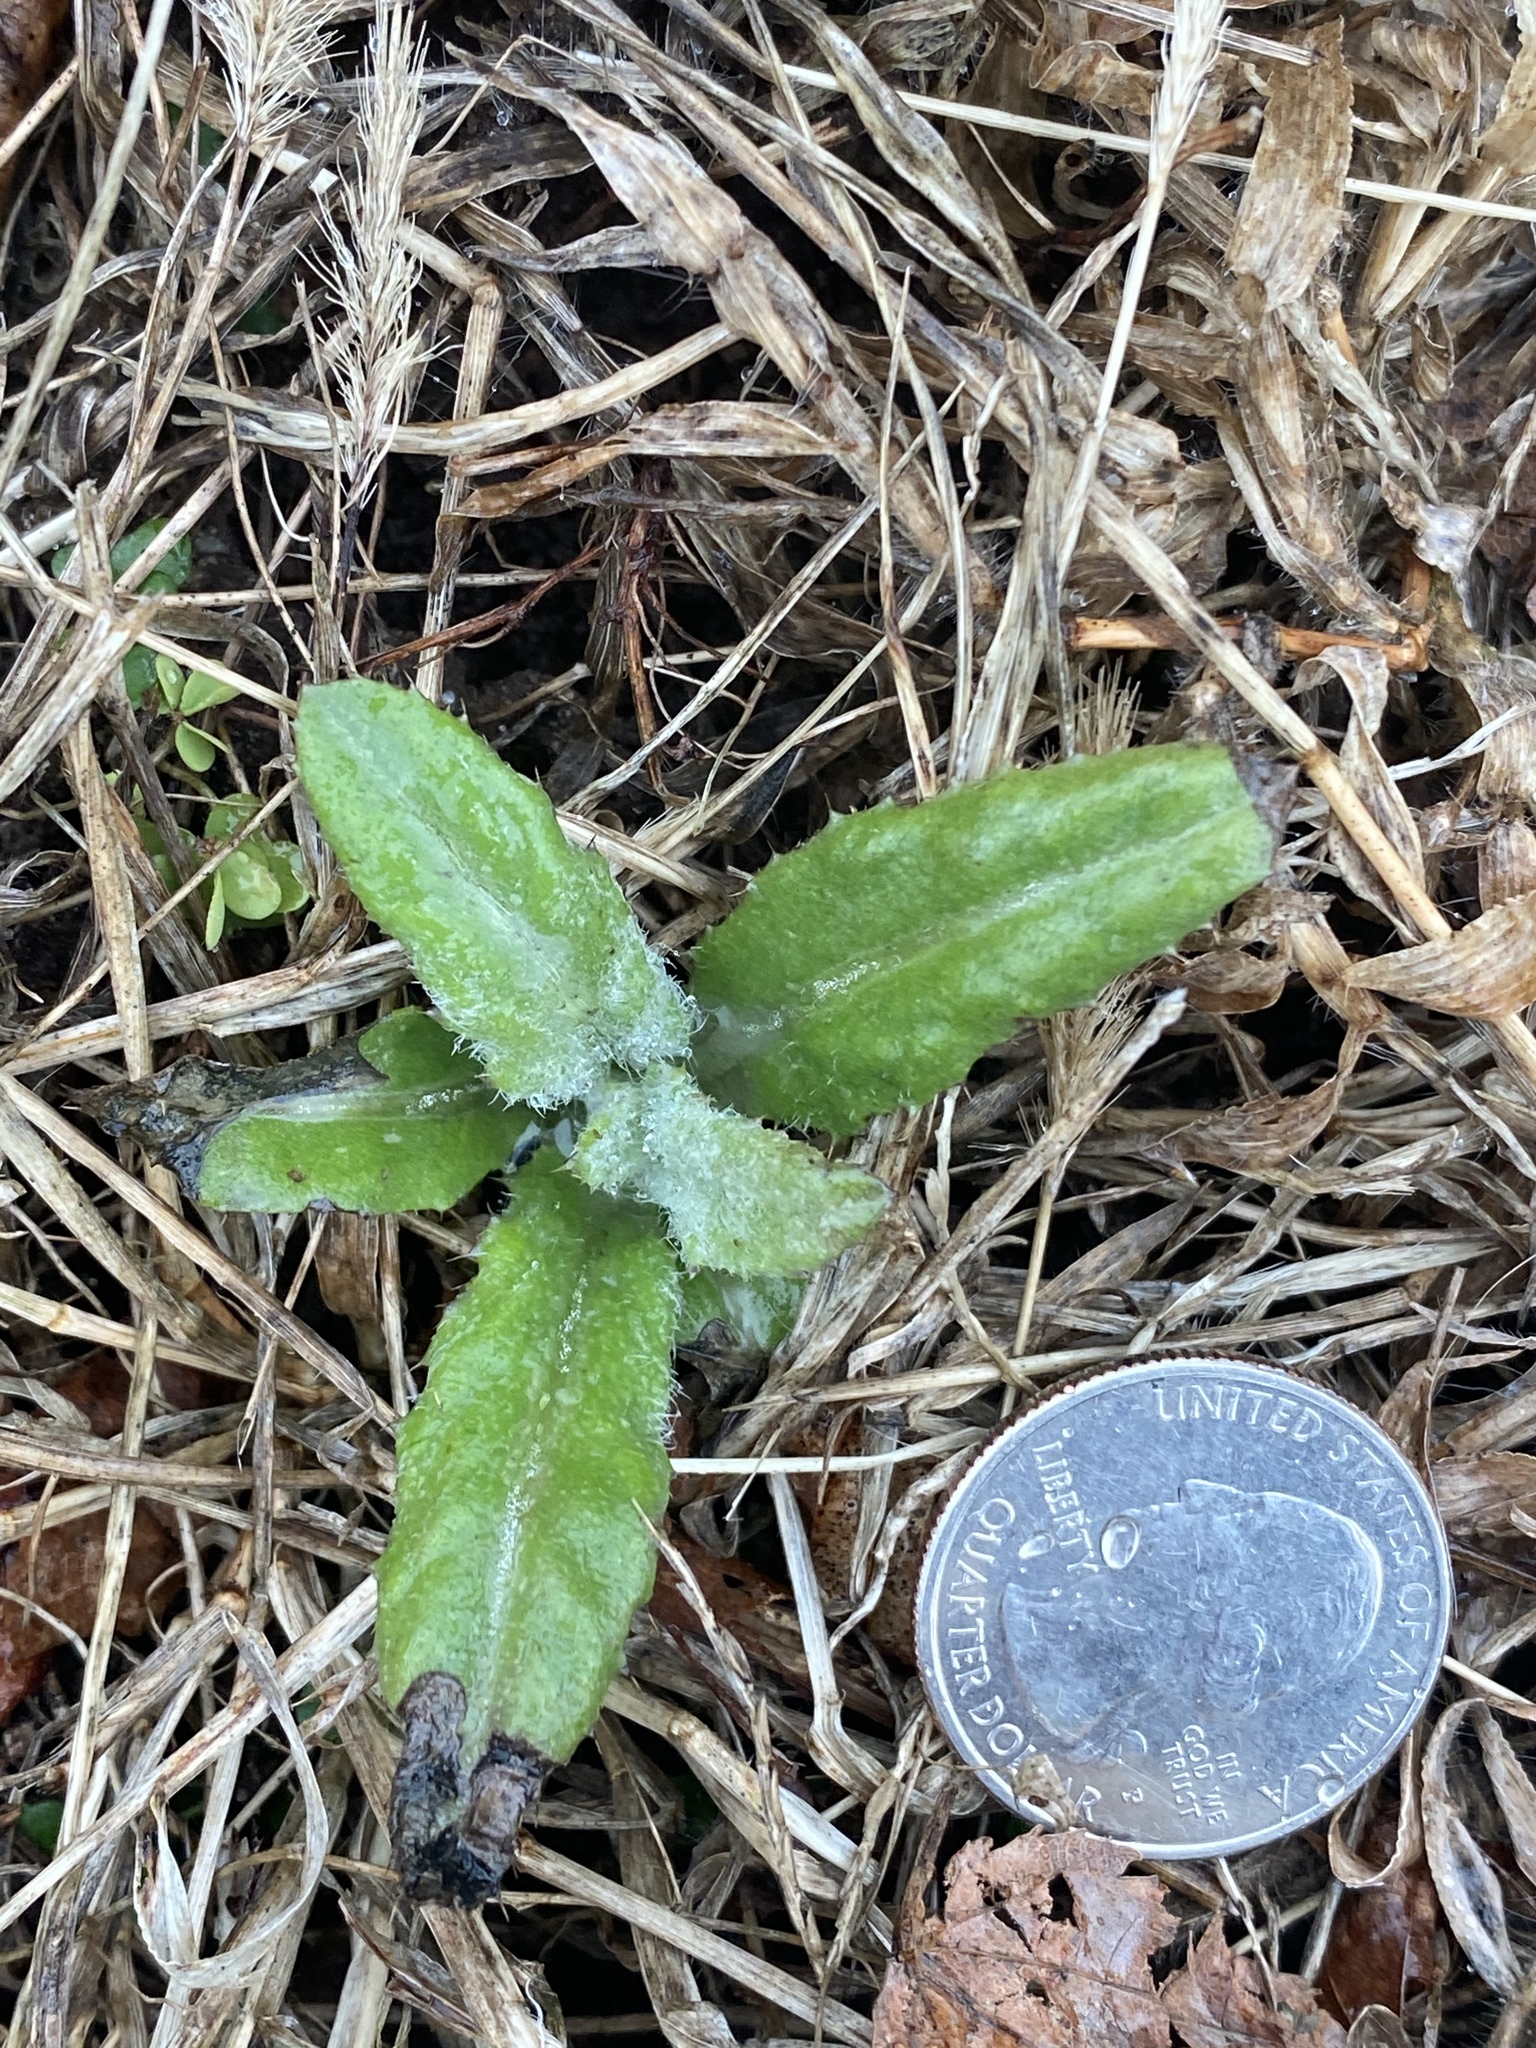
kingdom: Plantae
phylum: Tracheophyta
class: Magnoliopsida
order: Asterales
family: Asteraceae
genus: Cirsium
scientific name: Cirsium arvense
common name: Creeping thistle
